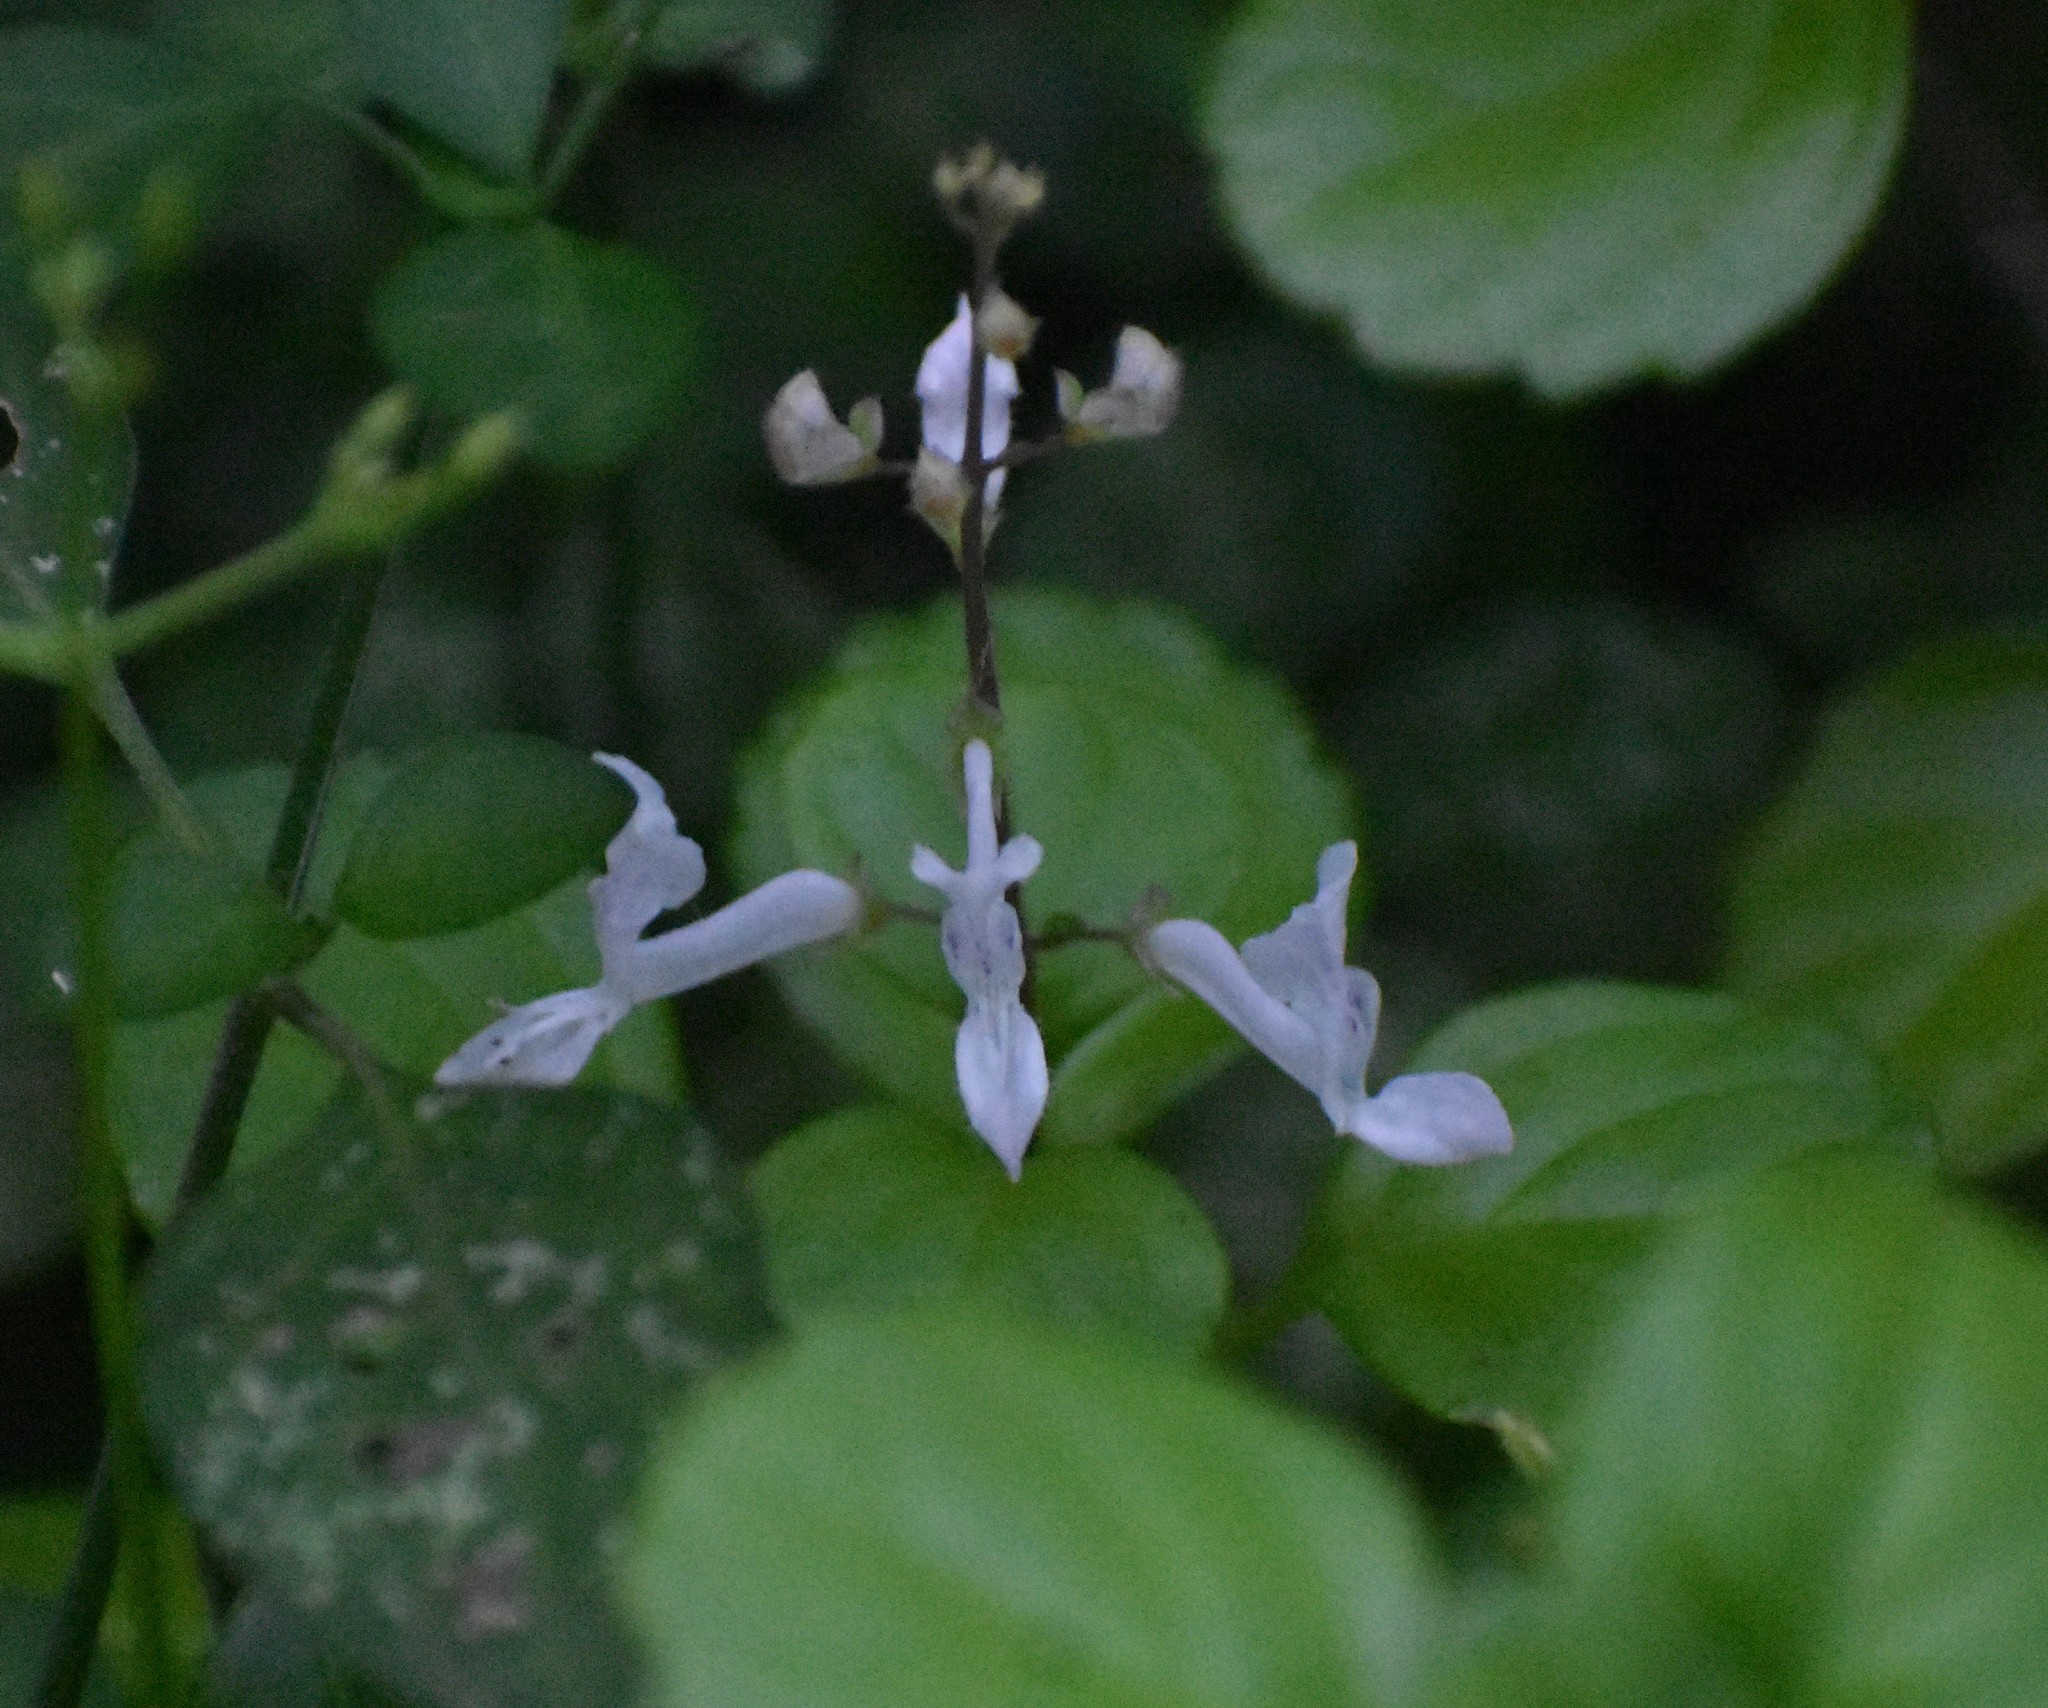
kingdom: Plantae
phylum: Tracheophyta
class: Magnoliopsida
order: Lamiales
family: Lamiaceae
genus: Plectranthus
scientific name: Plectranthus verticillatus
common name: Whorled plectranthus
